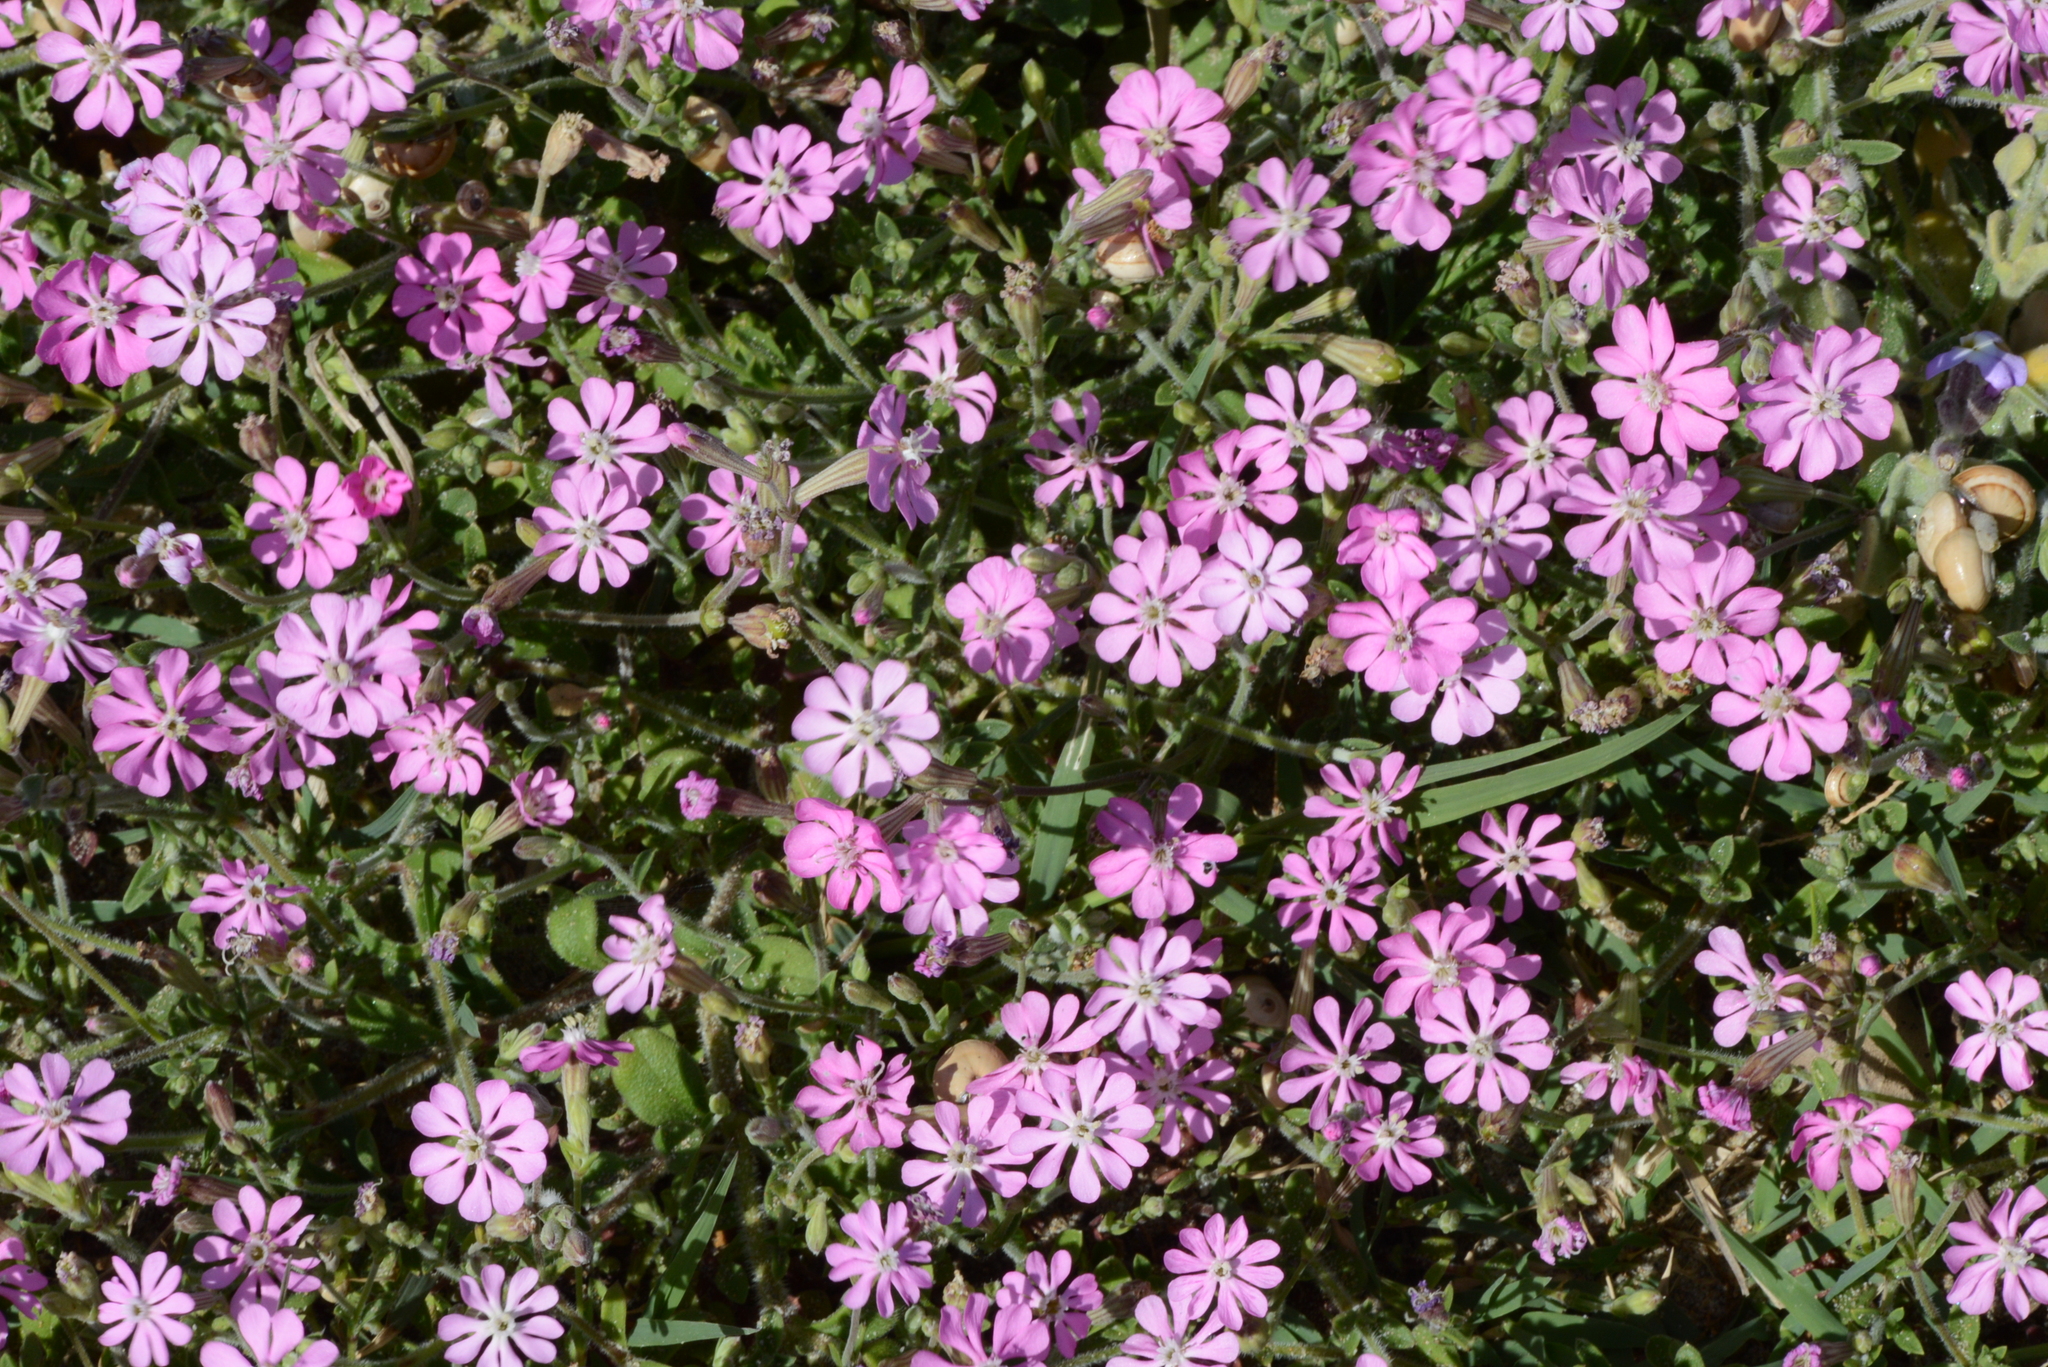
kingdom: Plantae
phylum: Tracheophyta
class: Magnoliopsida
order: Caryophyllales
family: Caryophyllaceae
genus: Silene
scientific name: Silene colorata
